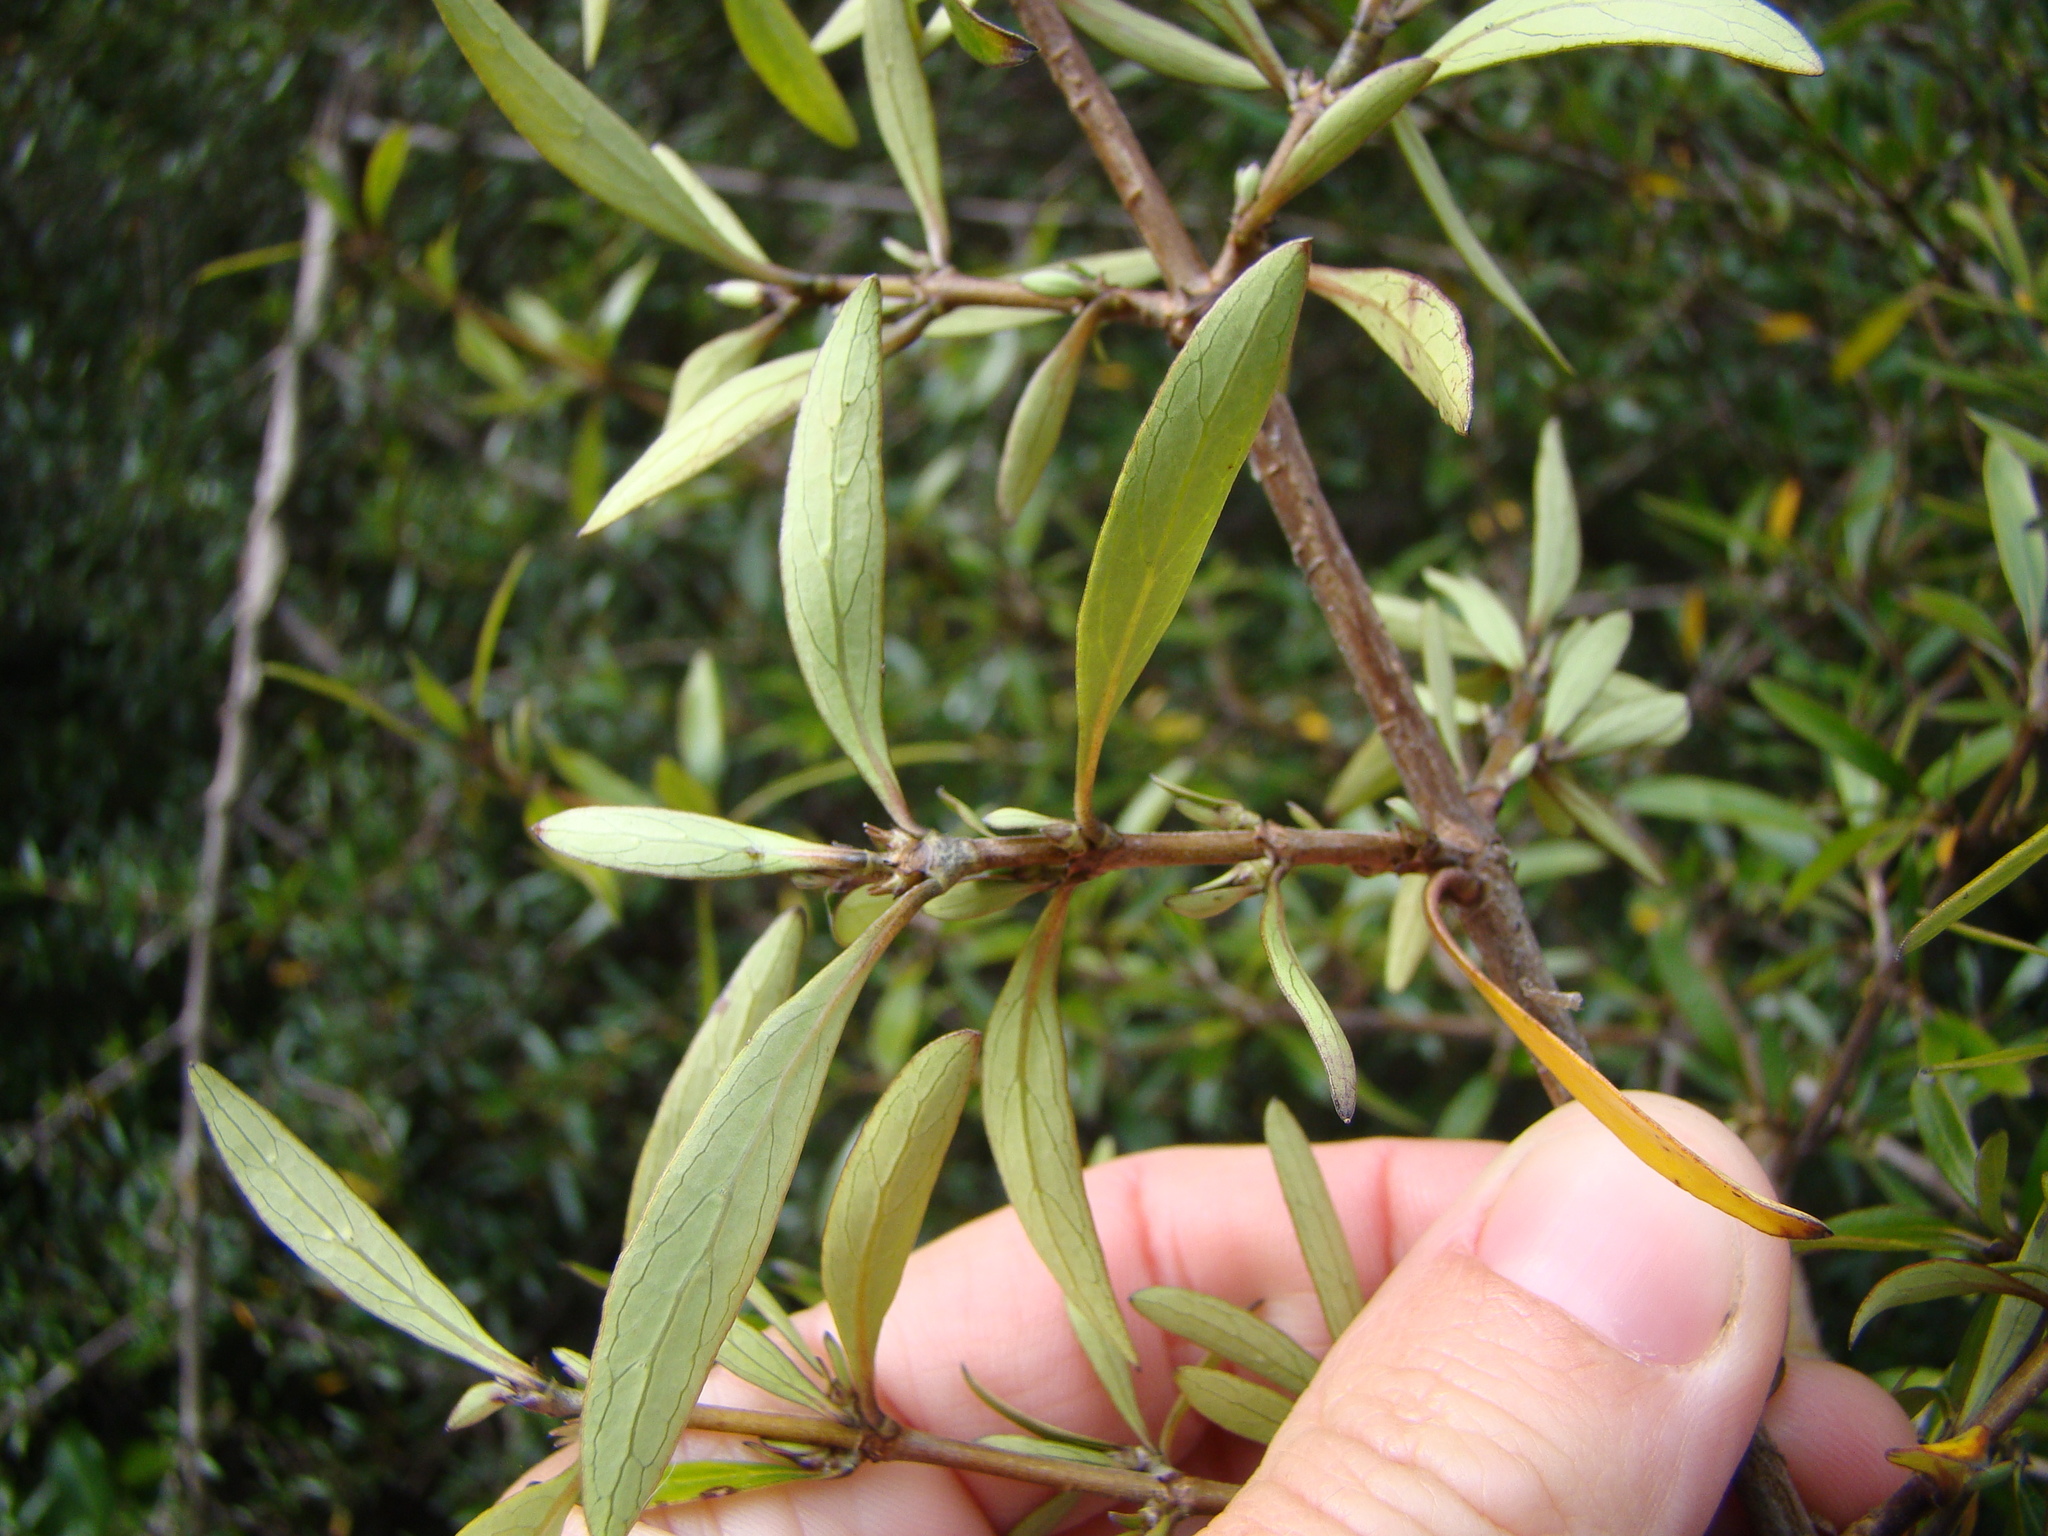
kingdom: Plantae
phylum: Tracheophyta
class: Magnoliopsida
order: Gentianales
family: Rubiaceae
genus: Coprosma
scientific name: Coprosma cunninghamii
